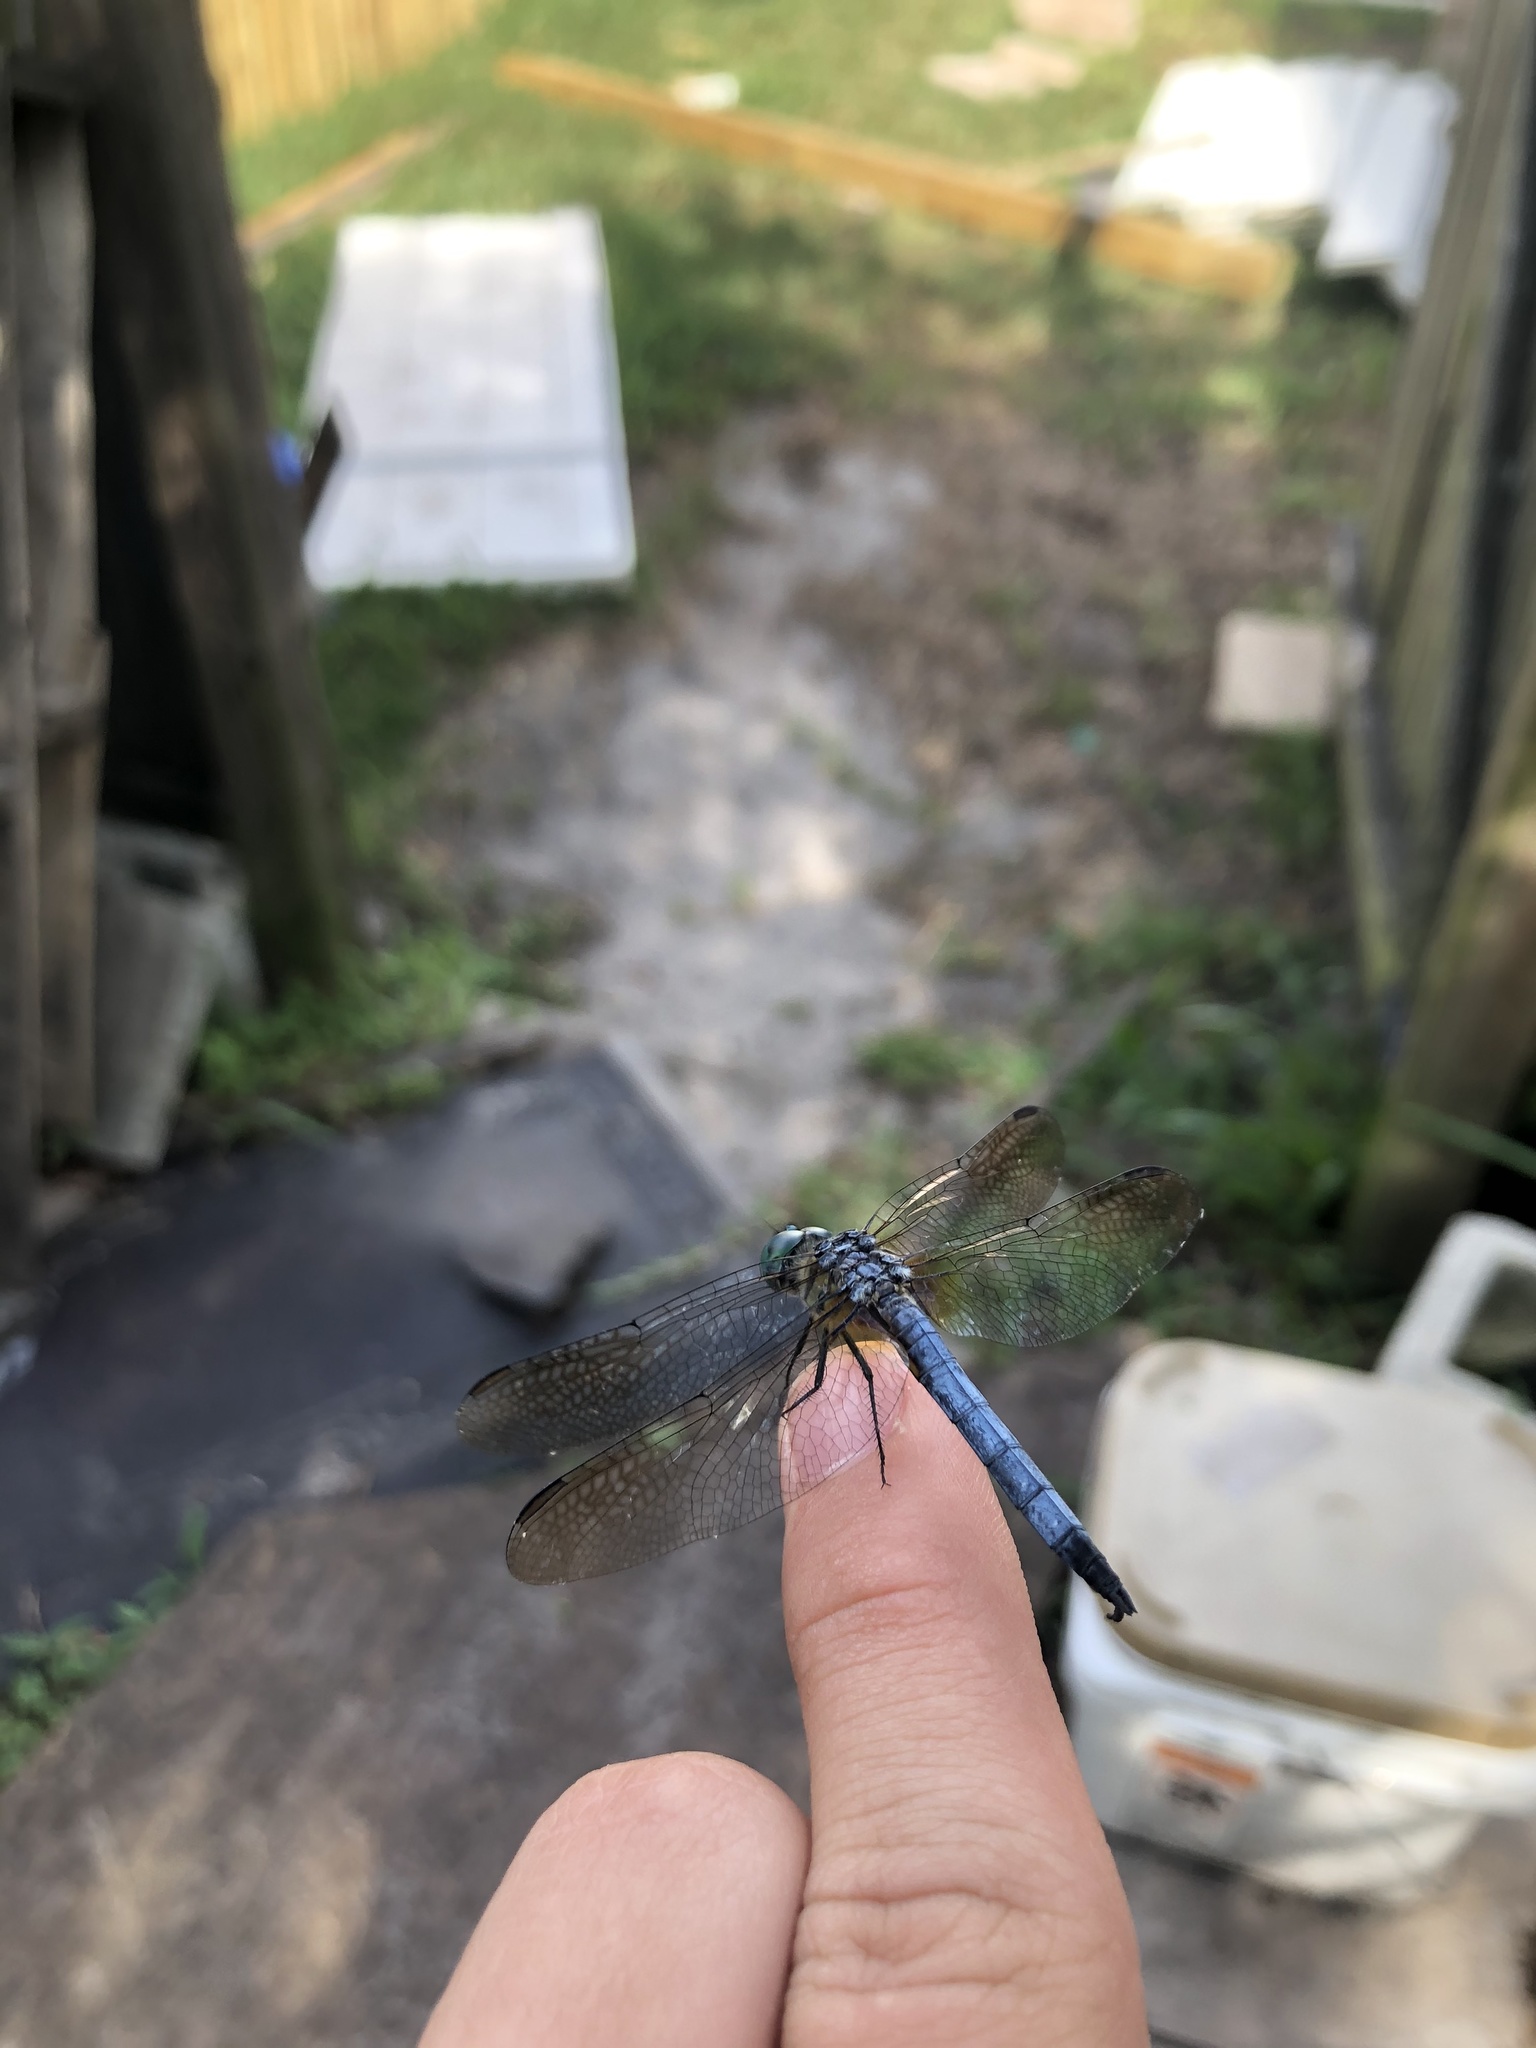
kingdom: Animalia
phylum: Arthropoda
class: Insecta
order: Odonata
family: Libellulidae
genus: Pachydiplax
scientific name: Pachydiplax longipennis
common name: Blue dasher
